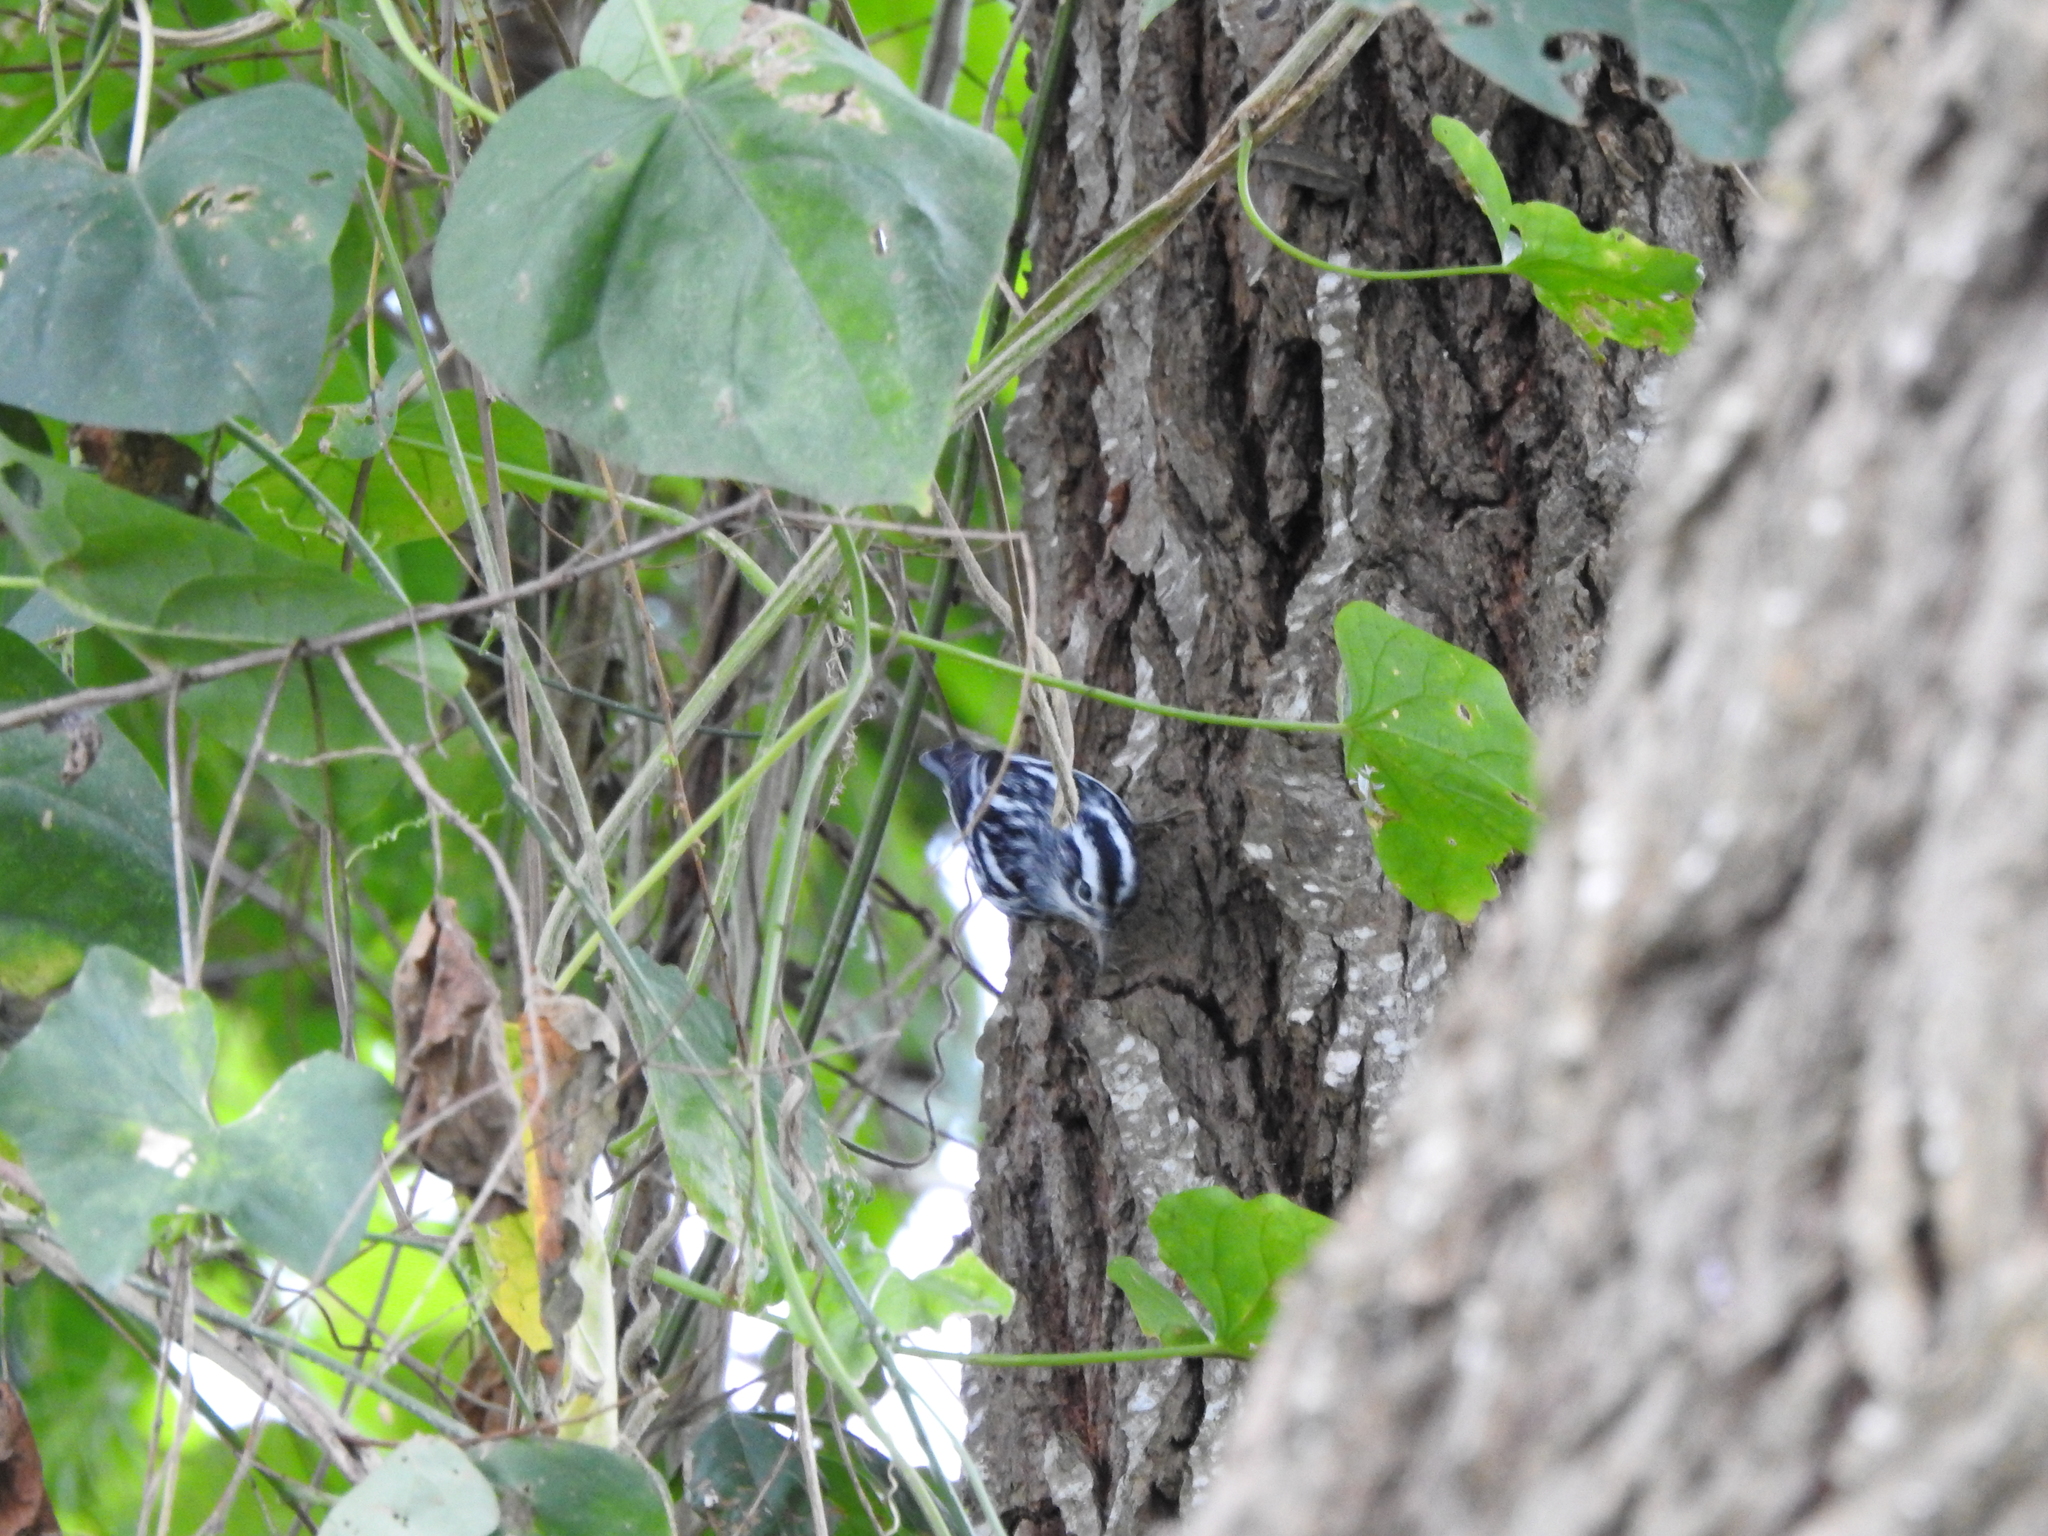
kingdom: Animalia
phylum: Chordata
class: Aves
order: Passeriformes
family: Parulidae
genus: Mniotilta
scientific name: Mniotilta varia
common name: Black-and-white warbler
